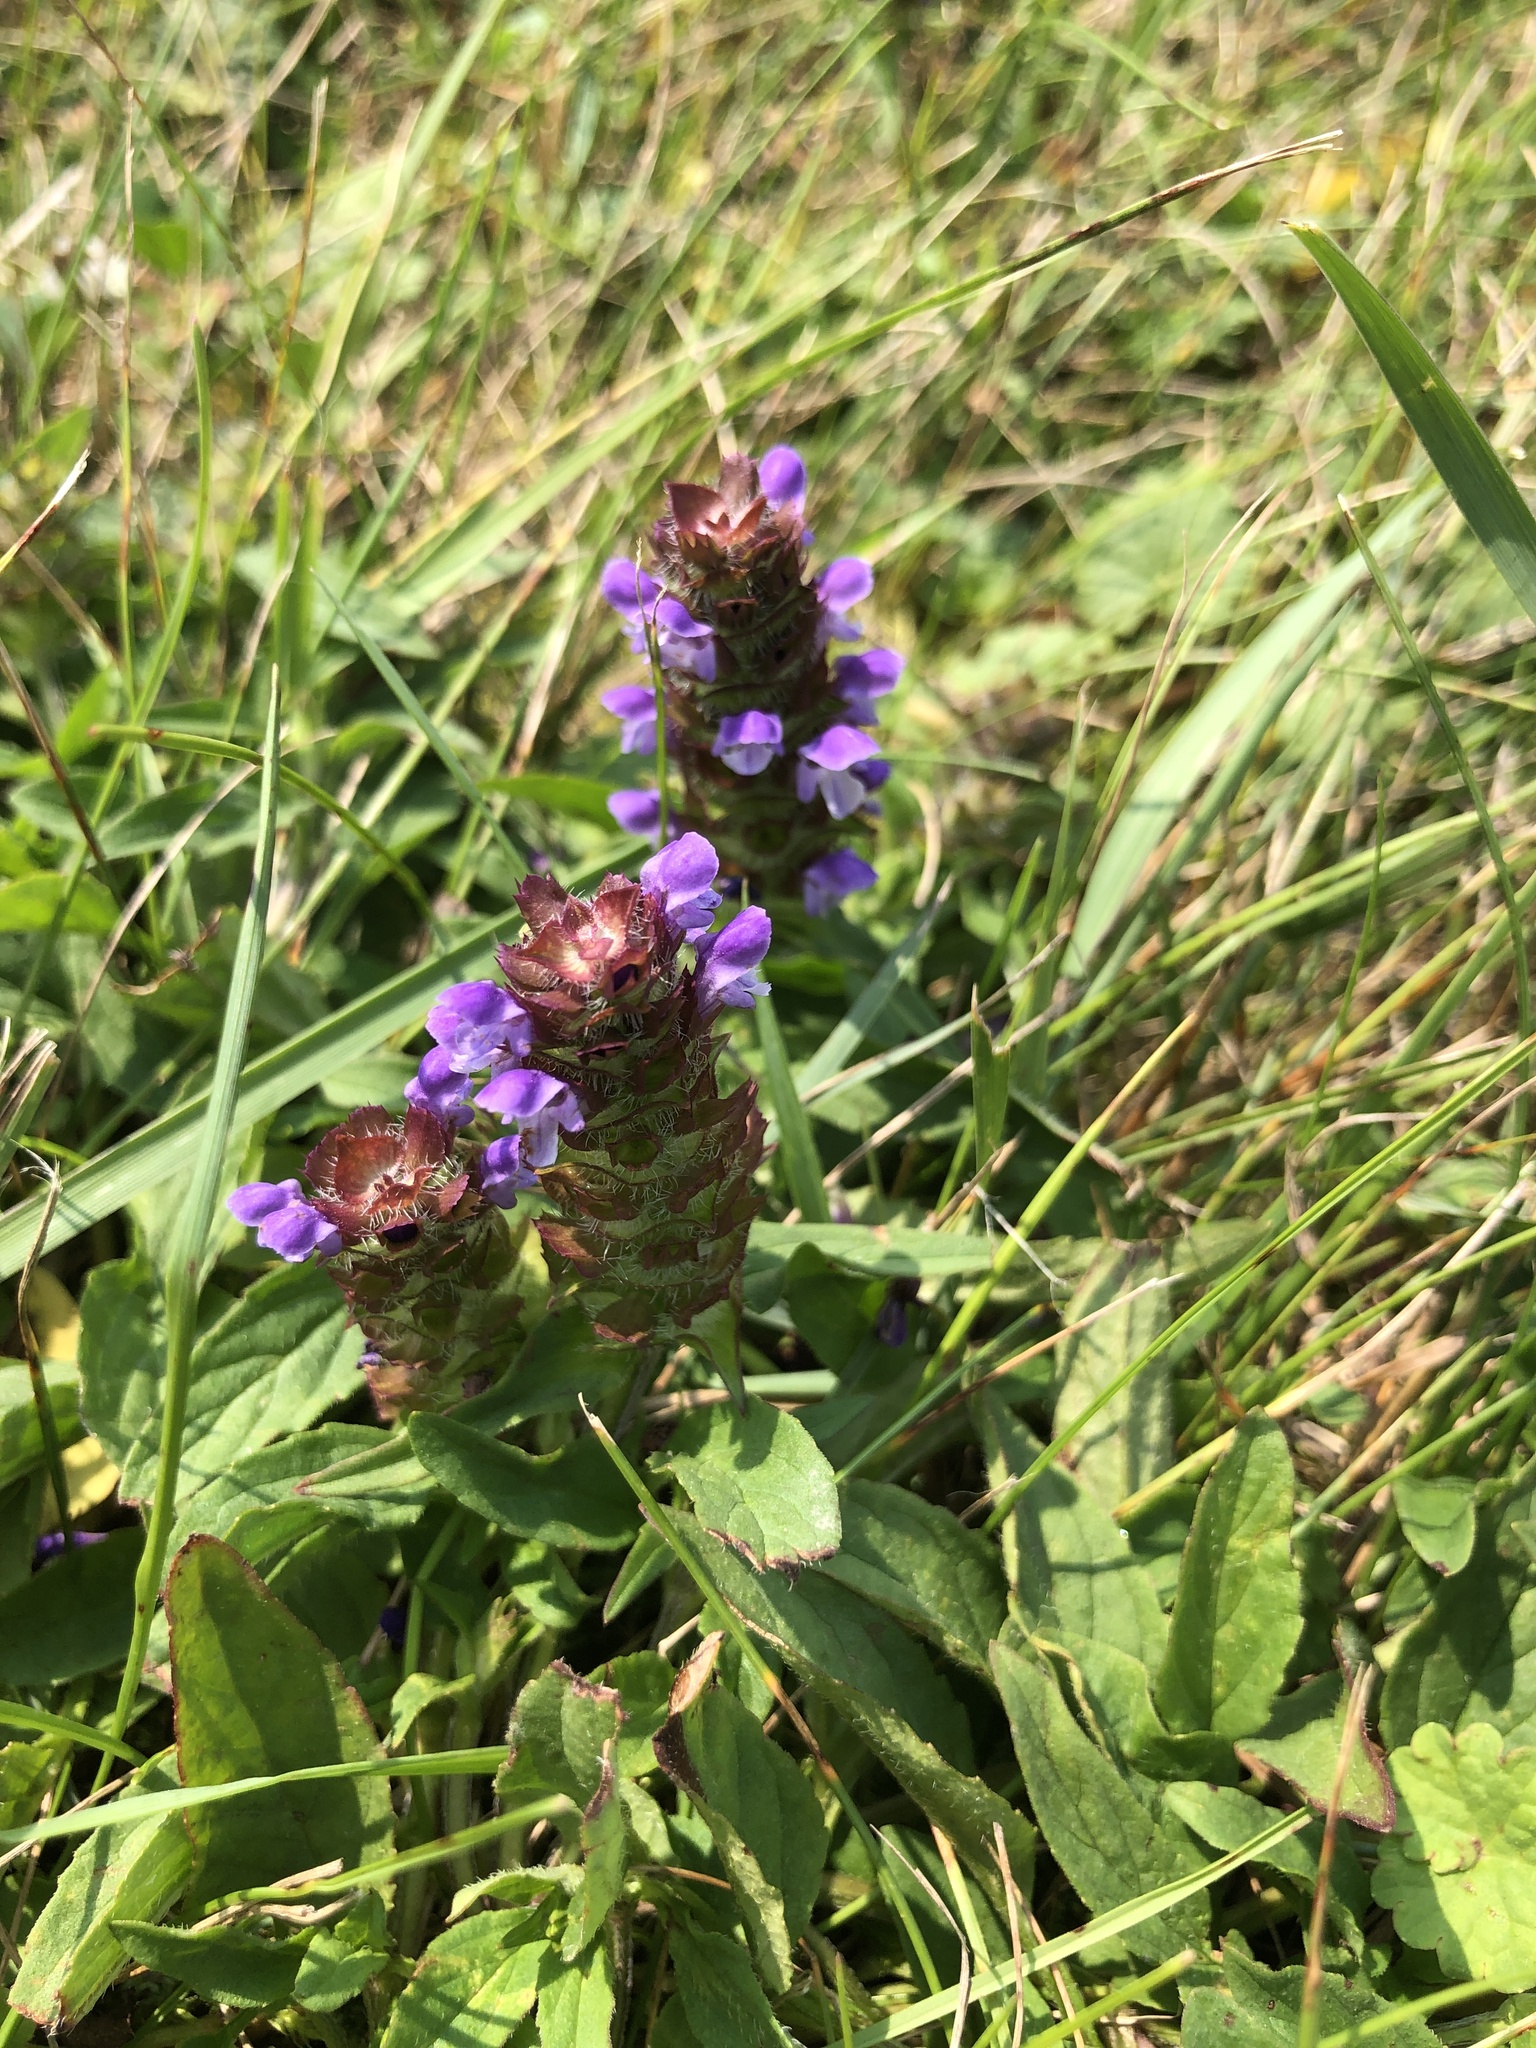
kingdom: Plantae
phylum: Tracheophyta
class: Magnoliopsida
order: Lamiales
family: Lamiaceae
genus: Prunella
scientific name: Prunella vulgaris
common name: Heal-all
